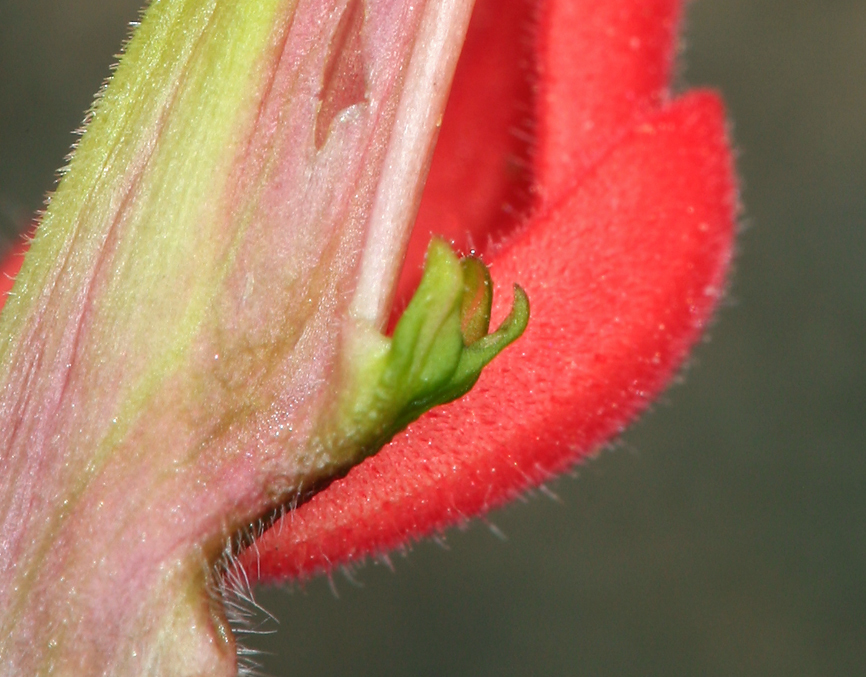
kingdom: Plantae
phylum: Tracheophyta
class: Magnoliopsida
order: Lamiales
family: Orobanchaceae
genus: Castilleja
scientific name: Castilleja chromosa
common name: Desert paintbrush
